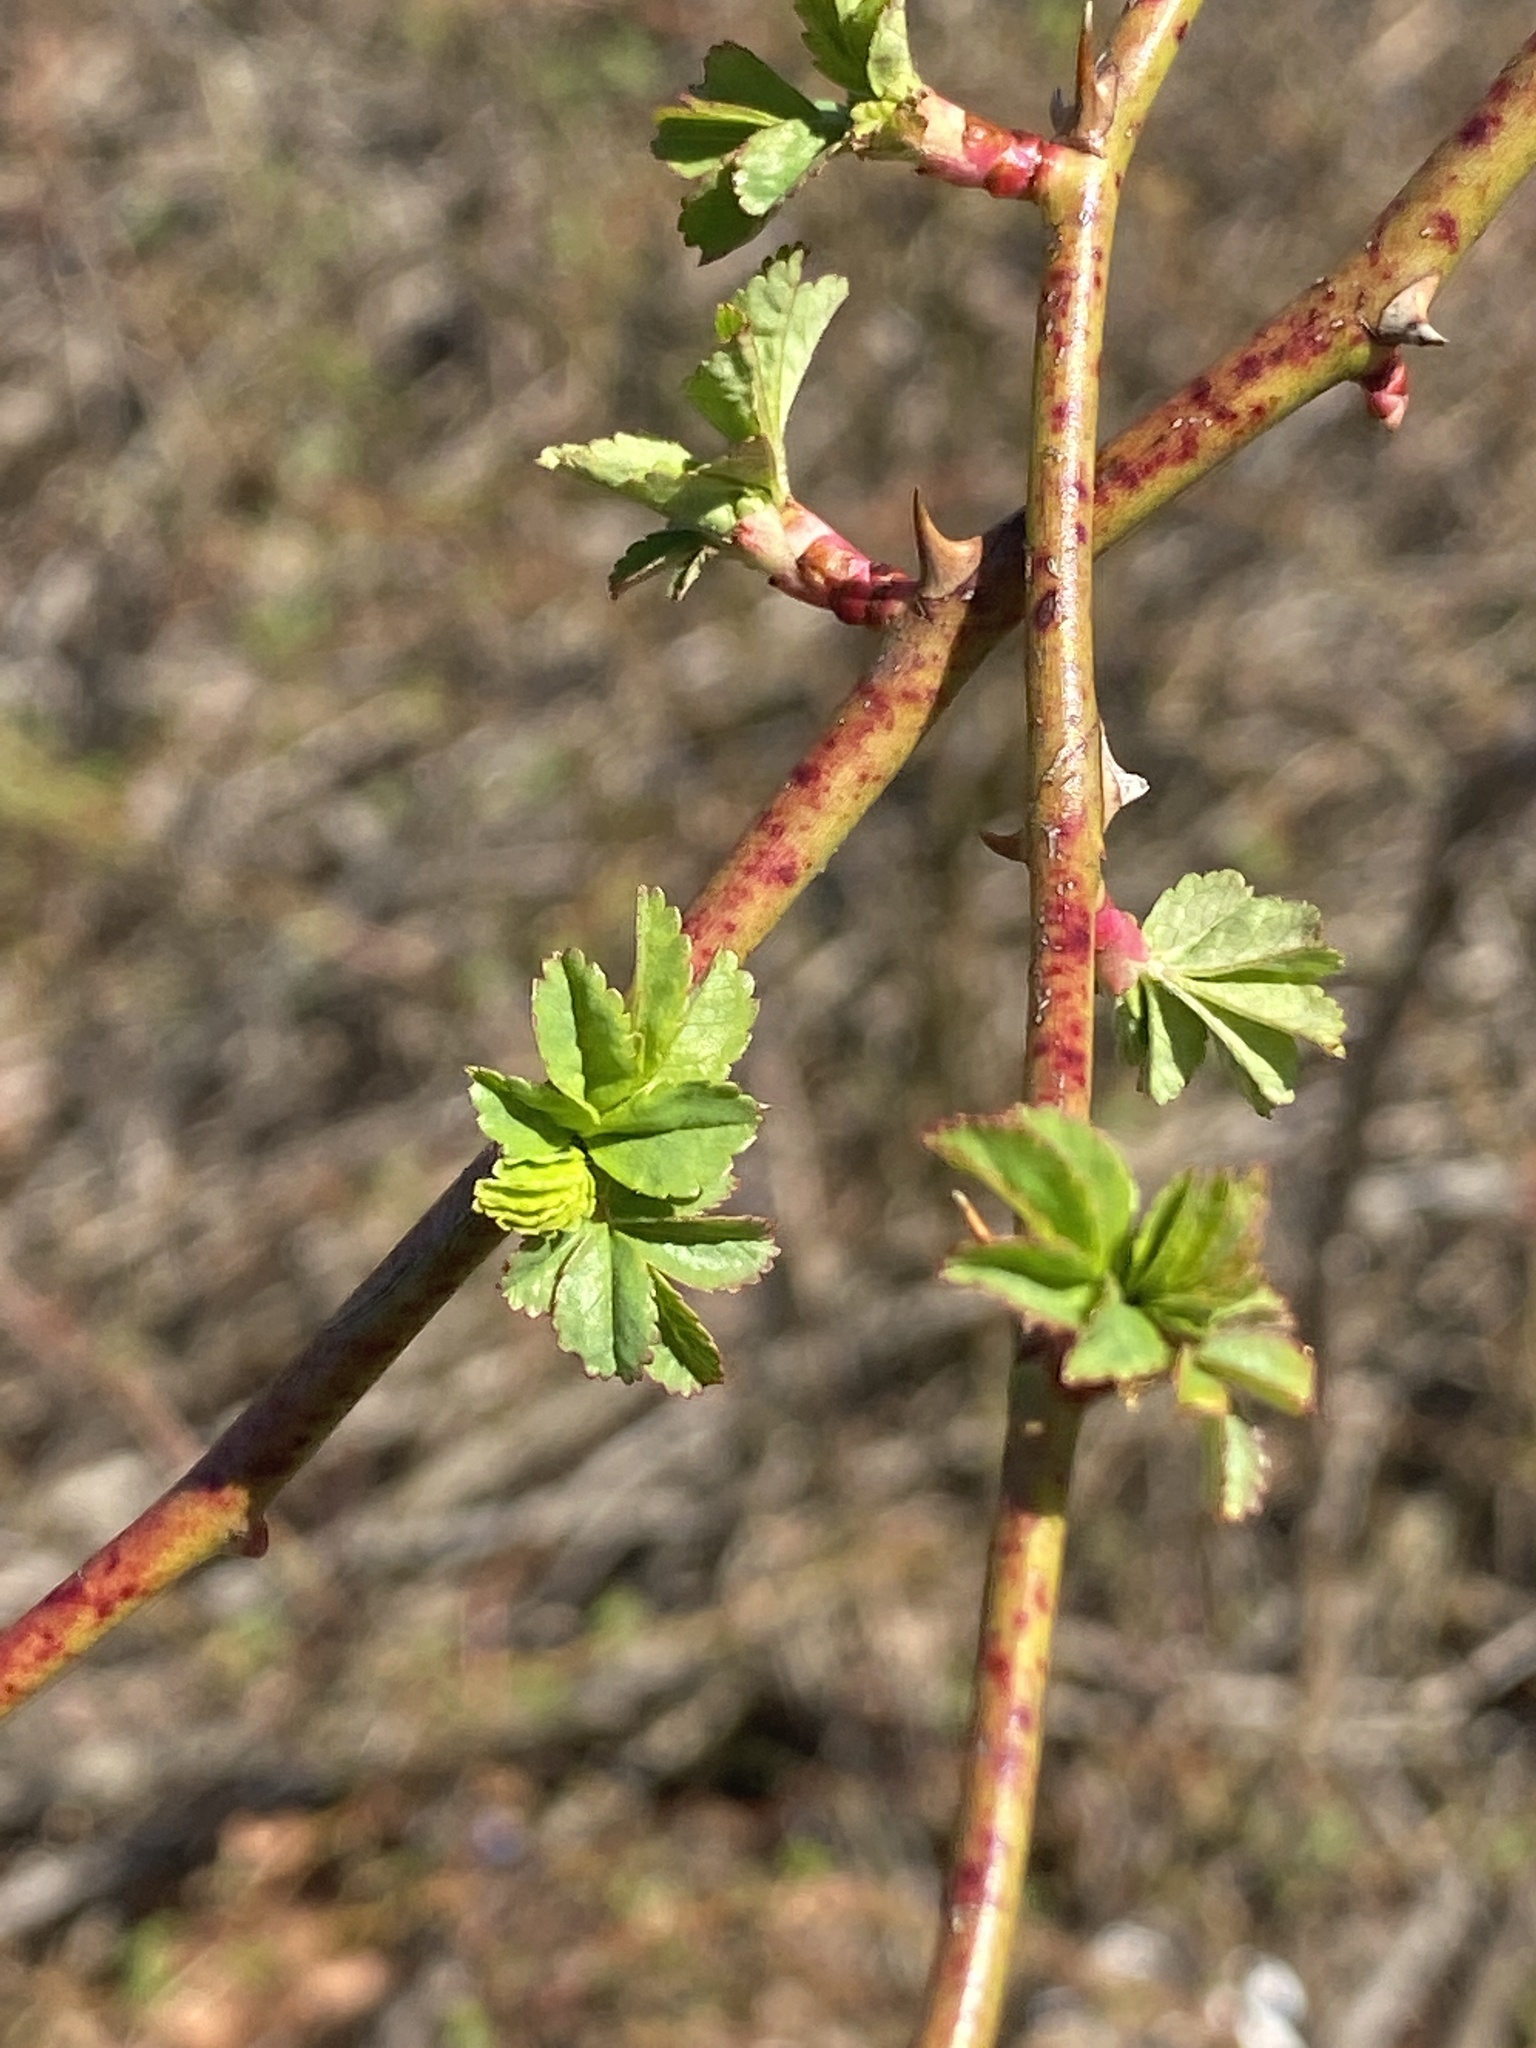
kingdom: Plantae
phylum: Tracheophyta
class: Magnoliopsida
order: Rosales
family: Rosaceae
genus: Rosa
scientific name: Rosa multiflora
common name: Multiflora rose
